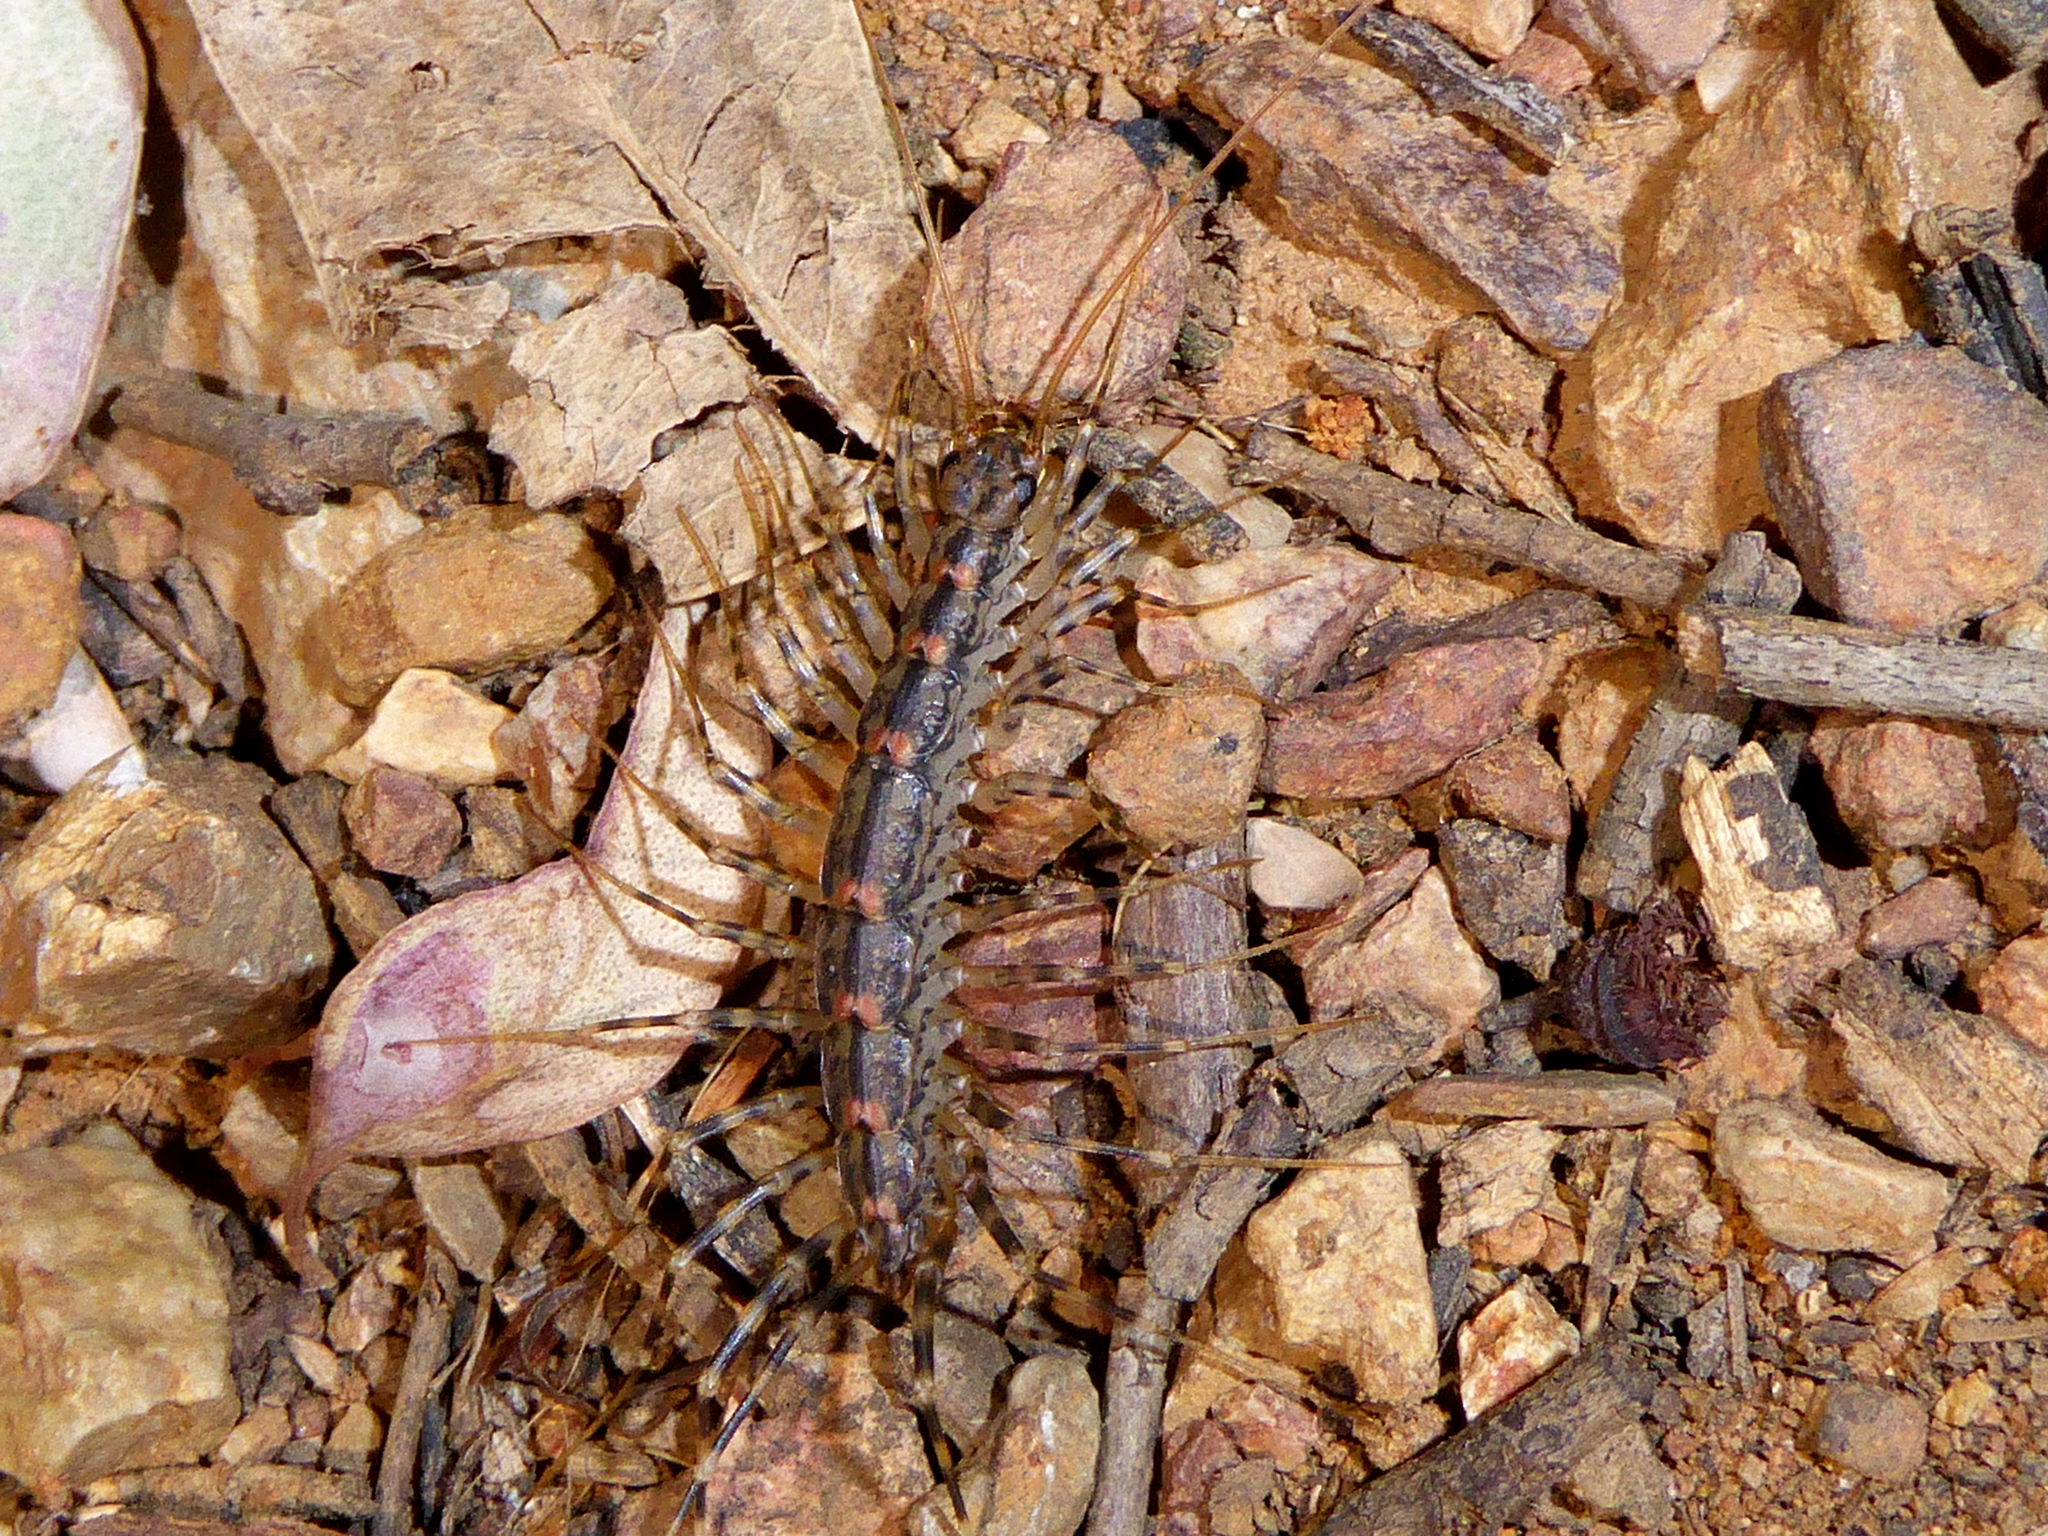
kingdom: Animalia
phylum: Arthropoda
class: Chilopoda
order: Scutigeromorpha
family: Scutigeridae
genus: Allothereua
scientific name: Allothereua maculata
